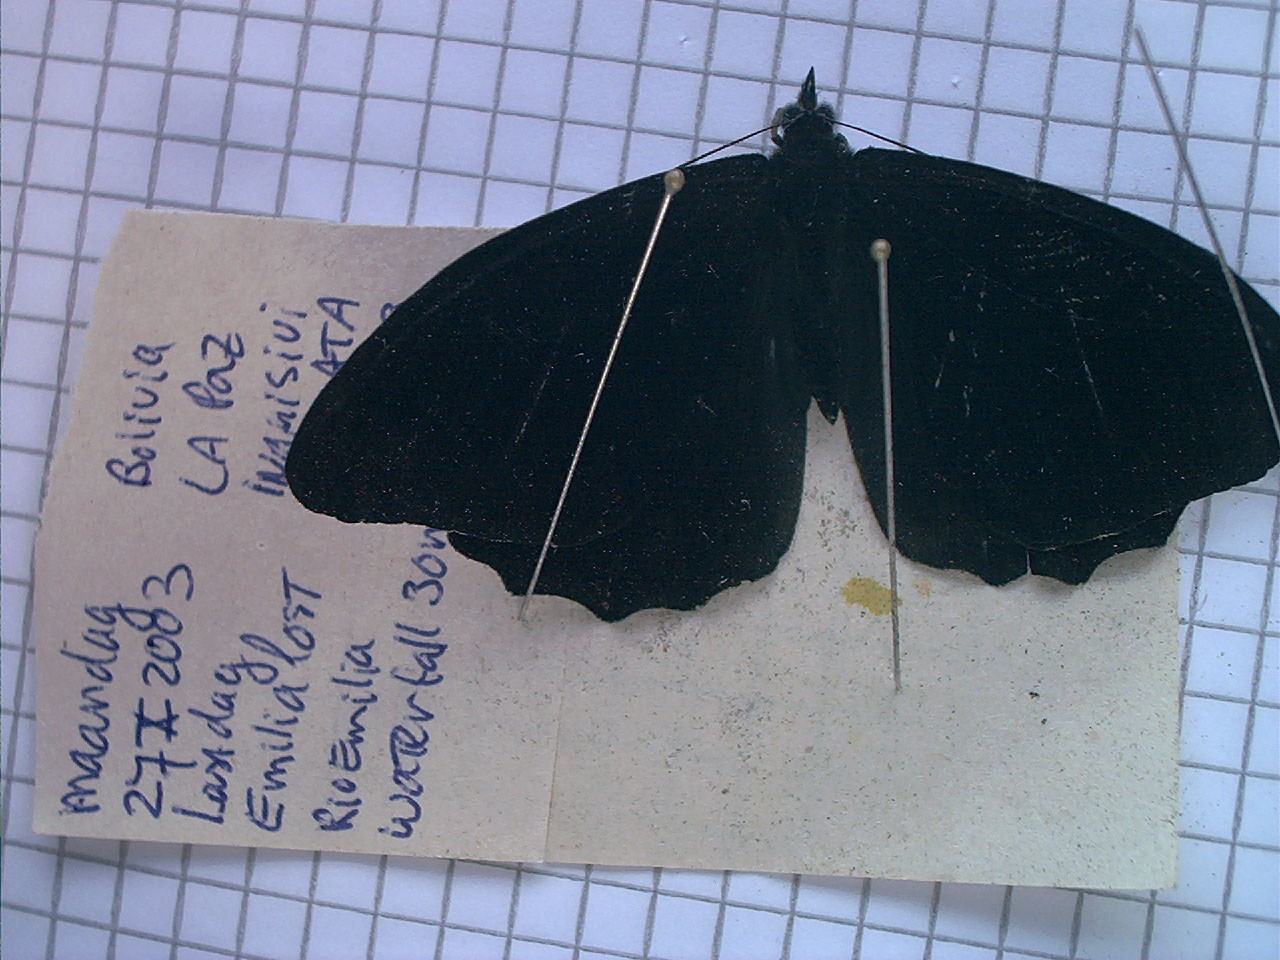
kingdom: Animalia
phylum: Arthropoda
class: Insecta
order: Lepidoptera
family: Nymphalidae
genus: Pronophila
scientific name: Pronophila cordillera
